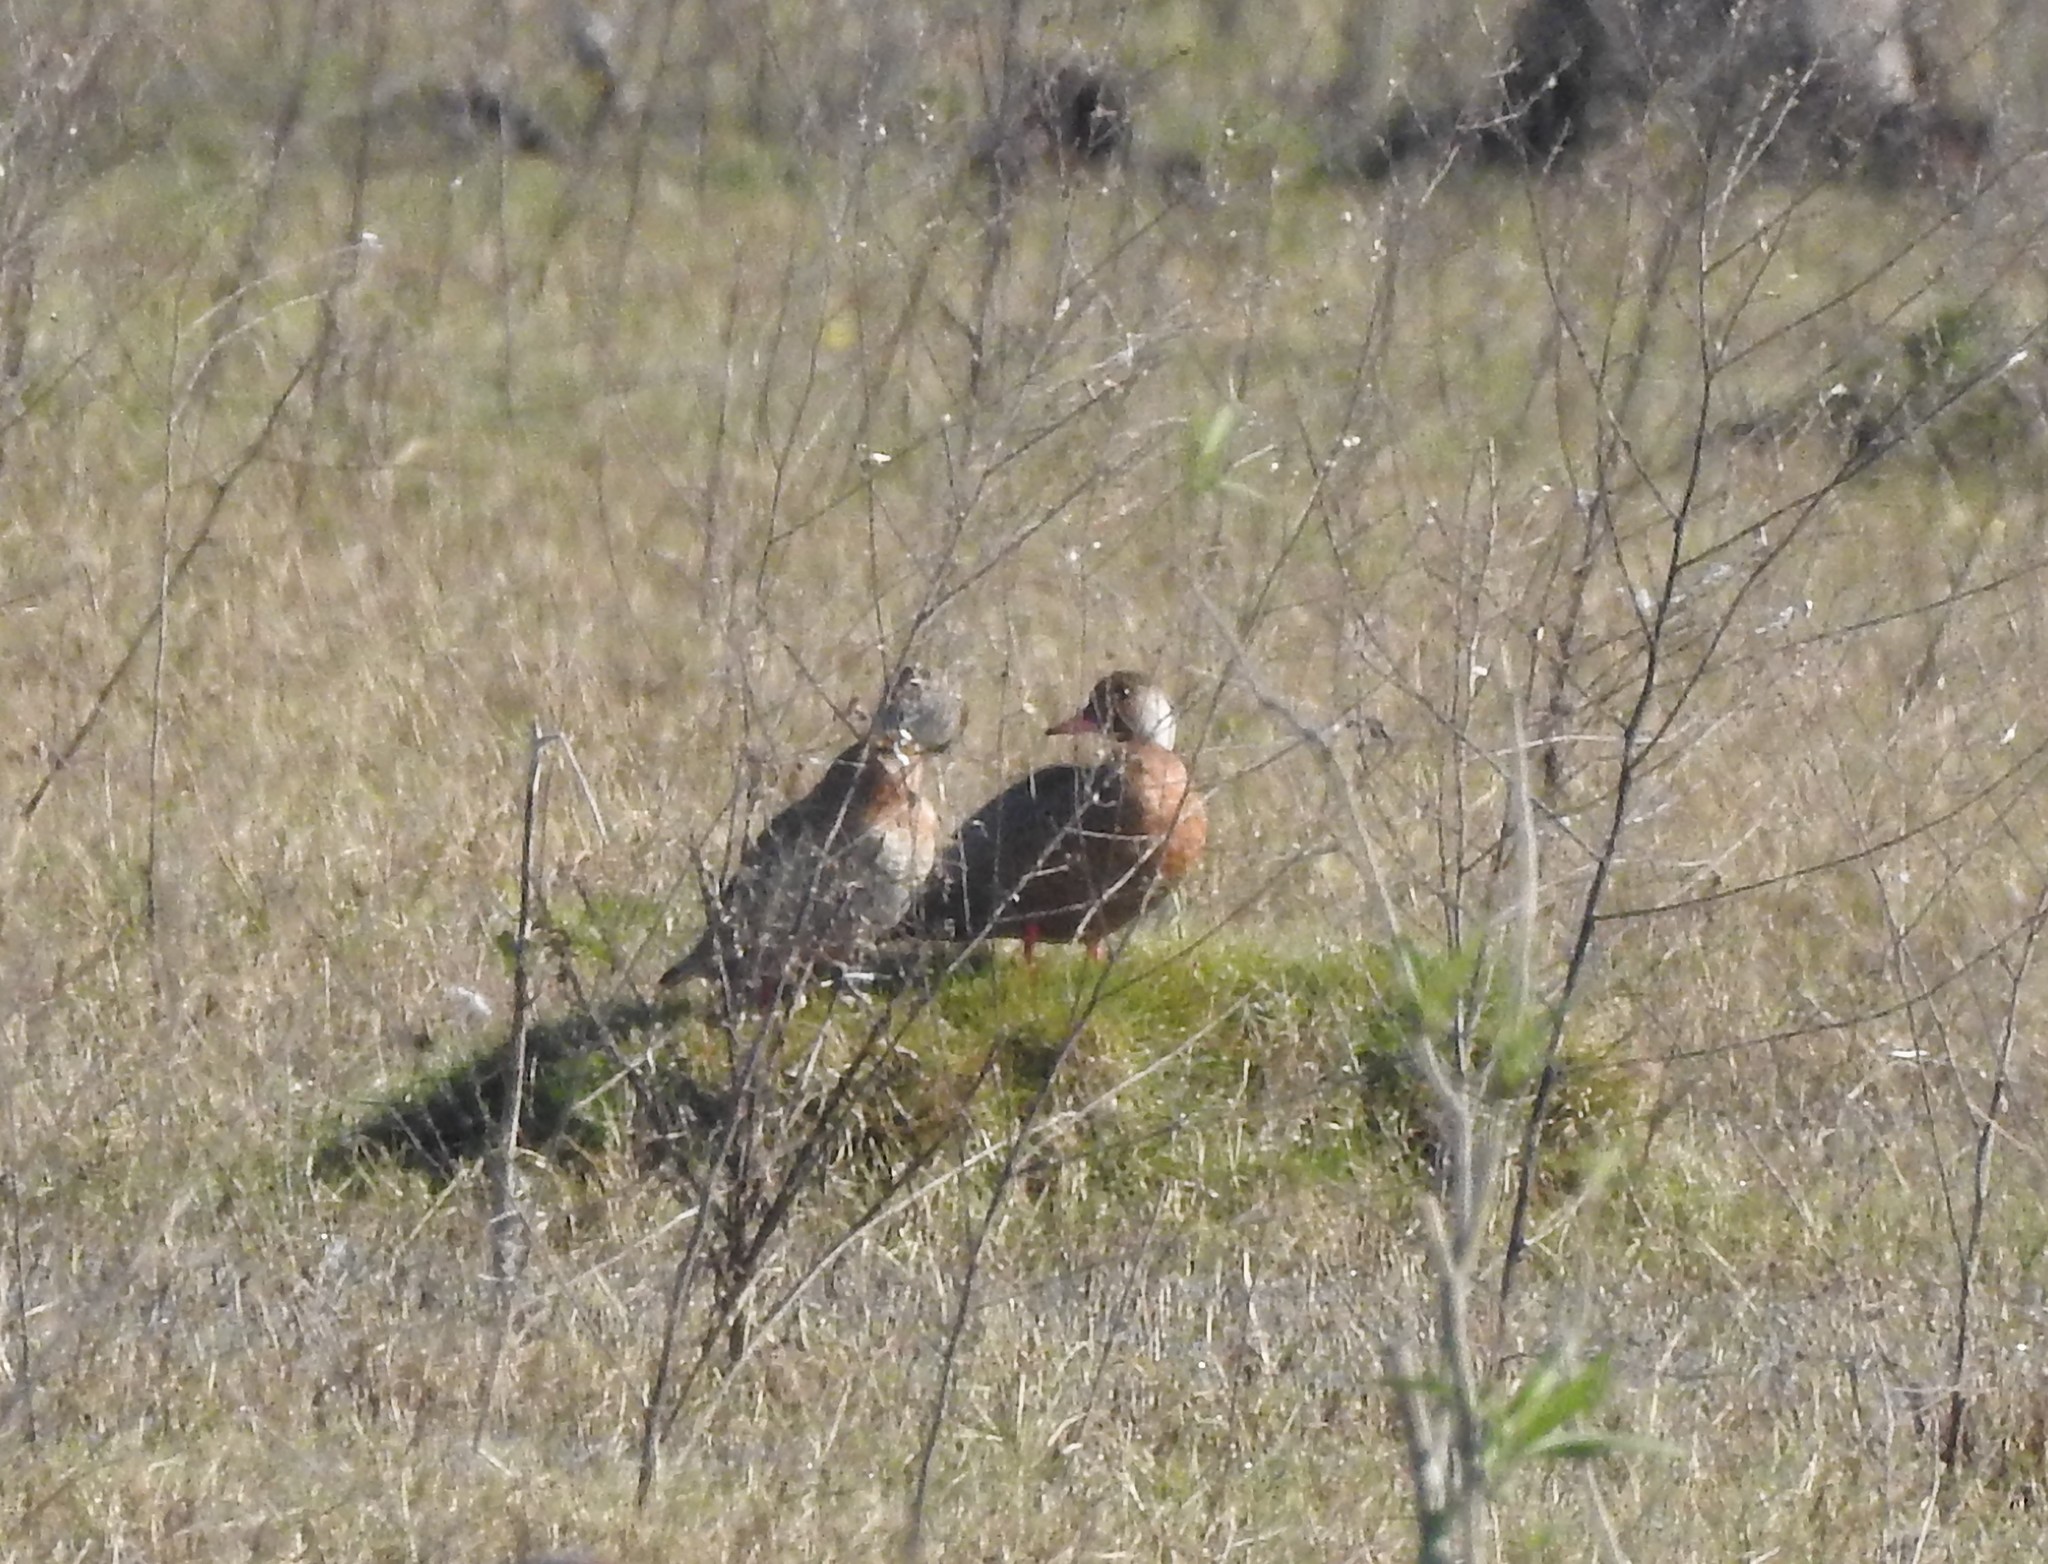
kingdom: Animalia
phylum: Chordata
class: Aves
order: Anseriformes
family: Anatidae
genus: Amazonetta
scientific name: Amazonetta brasiliensis
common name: Brazilian teal
